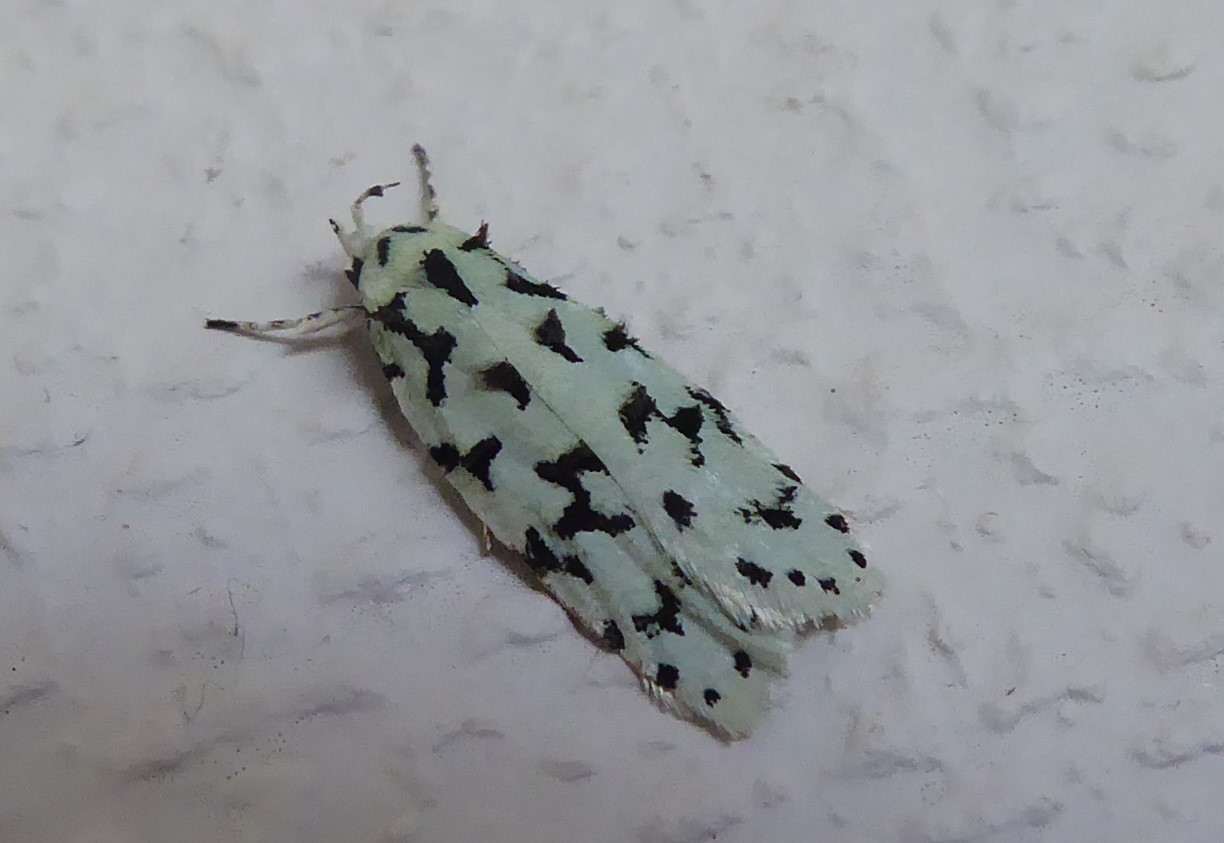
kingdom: Animalia
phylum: Arthropoda
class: Insecta
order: Lepidoptera
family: Oecophoridae
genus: Izatha
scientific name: Izatha huttoni
